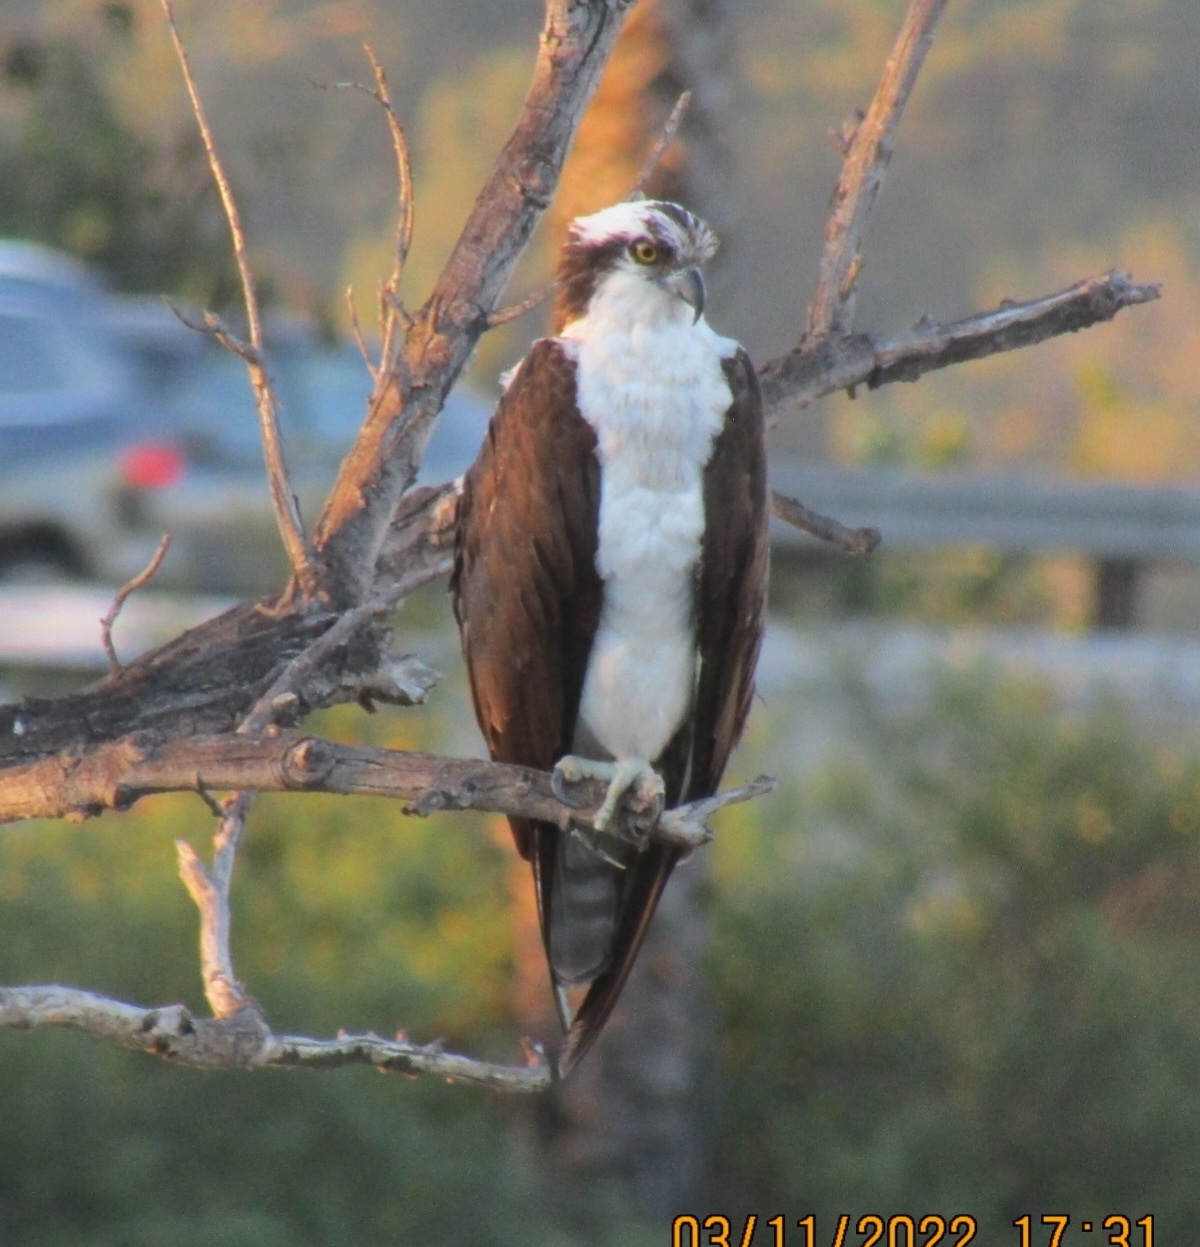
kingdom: Animalia
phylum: Chordata
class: Aves
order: Accipitriformes
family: Pandionidae
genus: Pandion
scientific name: Pandion haliaetus
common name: Osprey
